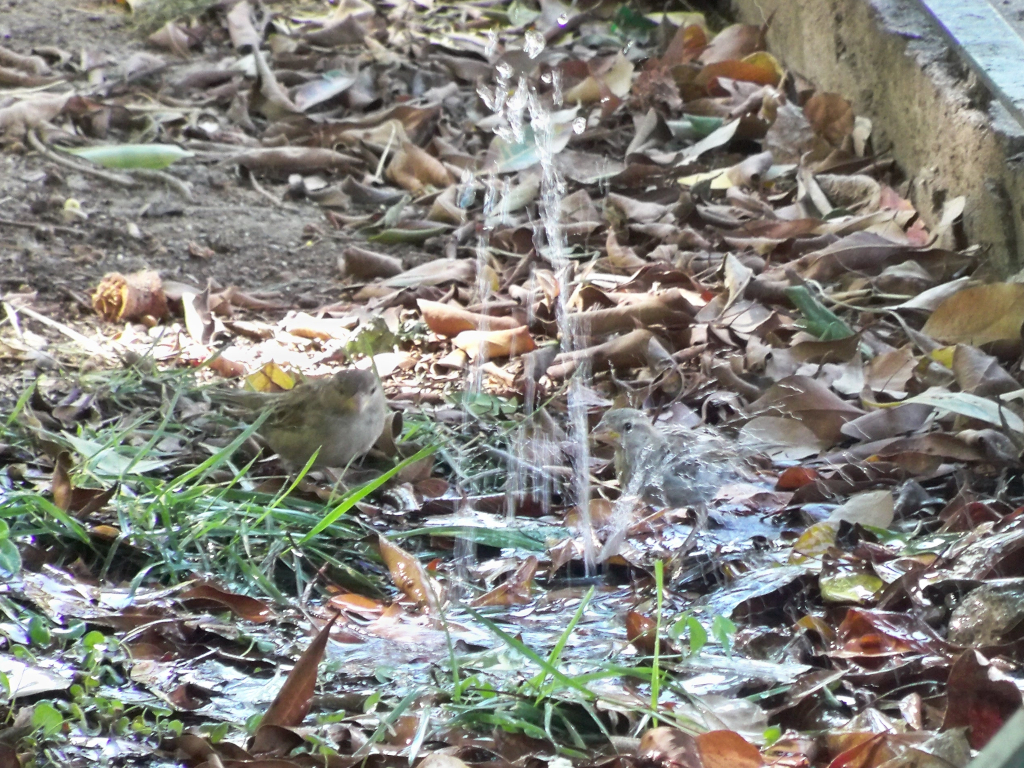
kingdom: Animalia
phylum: Chordata
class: Aves
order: Passeriformes
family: Passeridae
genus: Passer
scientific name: Passer domesticus
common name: House sparrow
